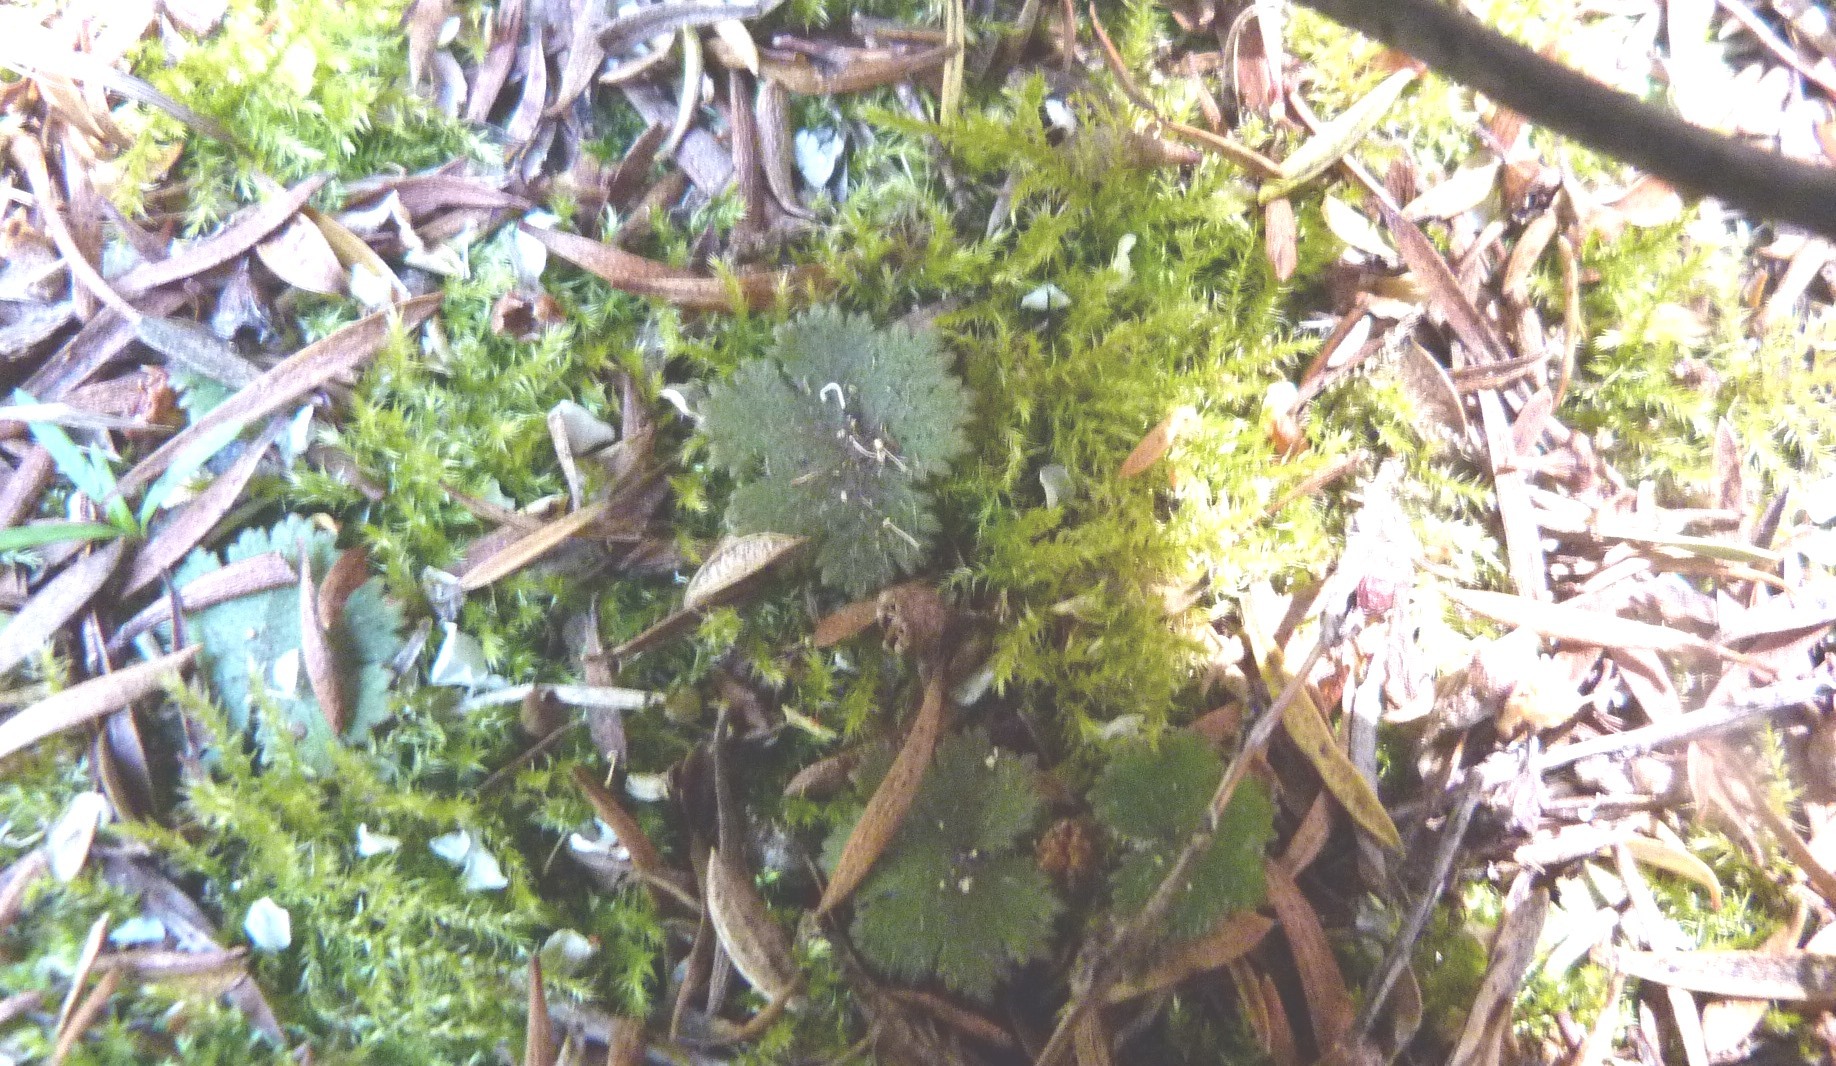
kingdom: Plantae
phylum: Tracheophyta
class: Magnoliopsida
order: Apiales
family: Araliaceae
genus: Hydrocotyle
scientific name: Hydrocotyle moschata
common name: Hairy pennywort
